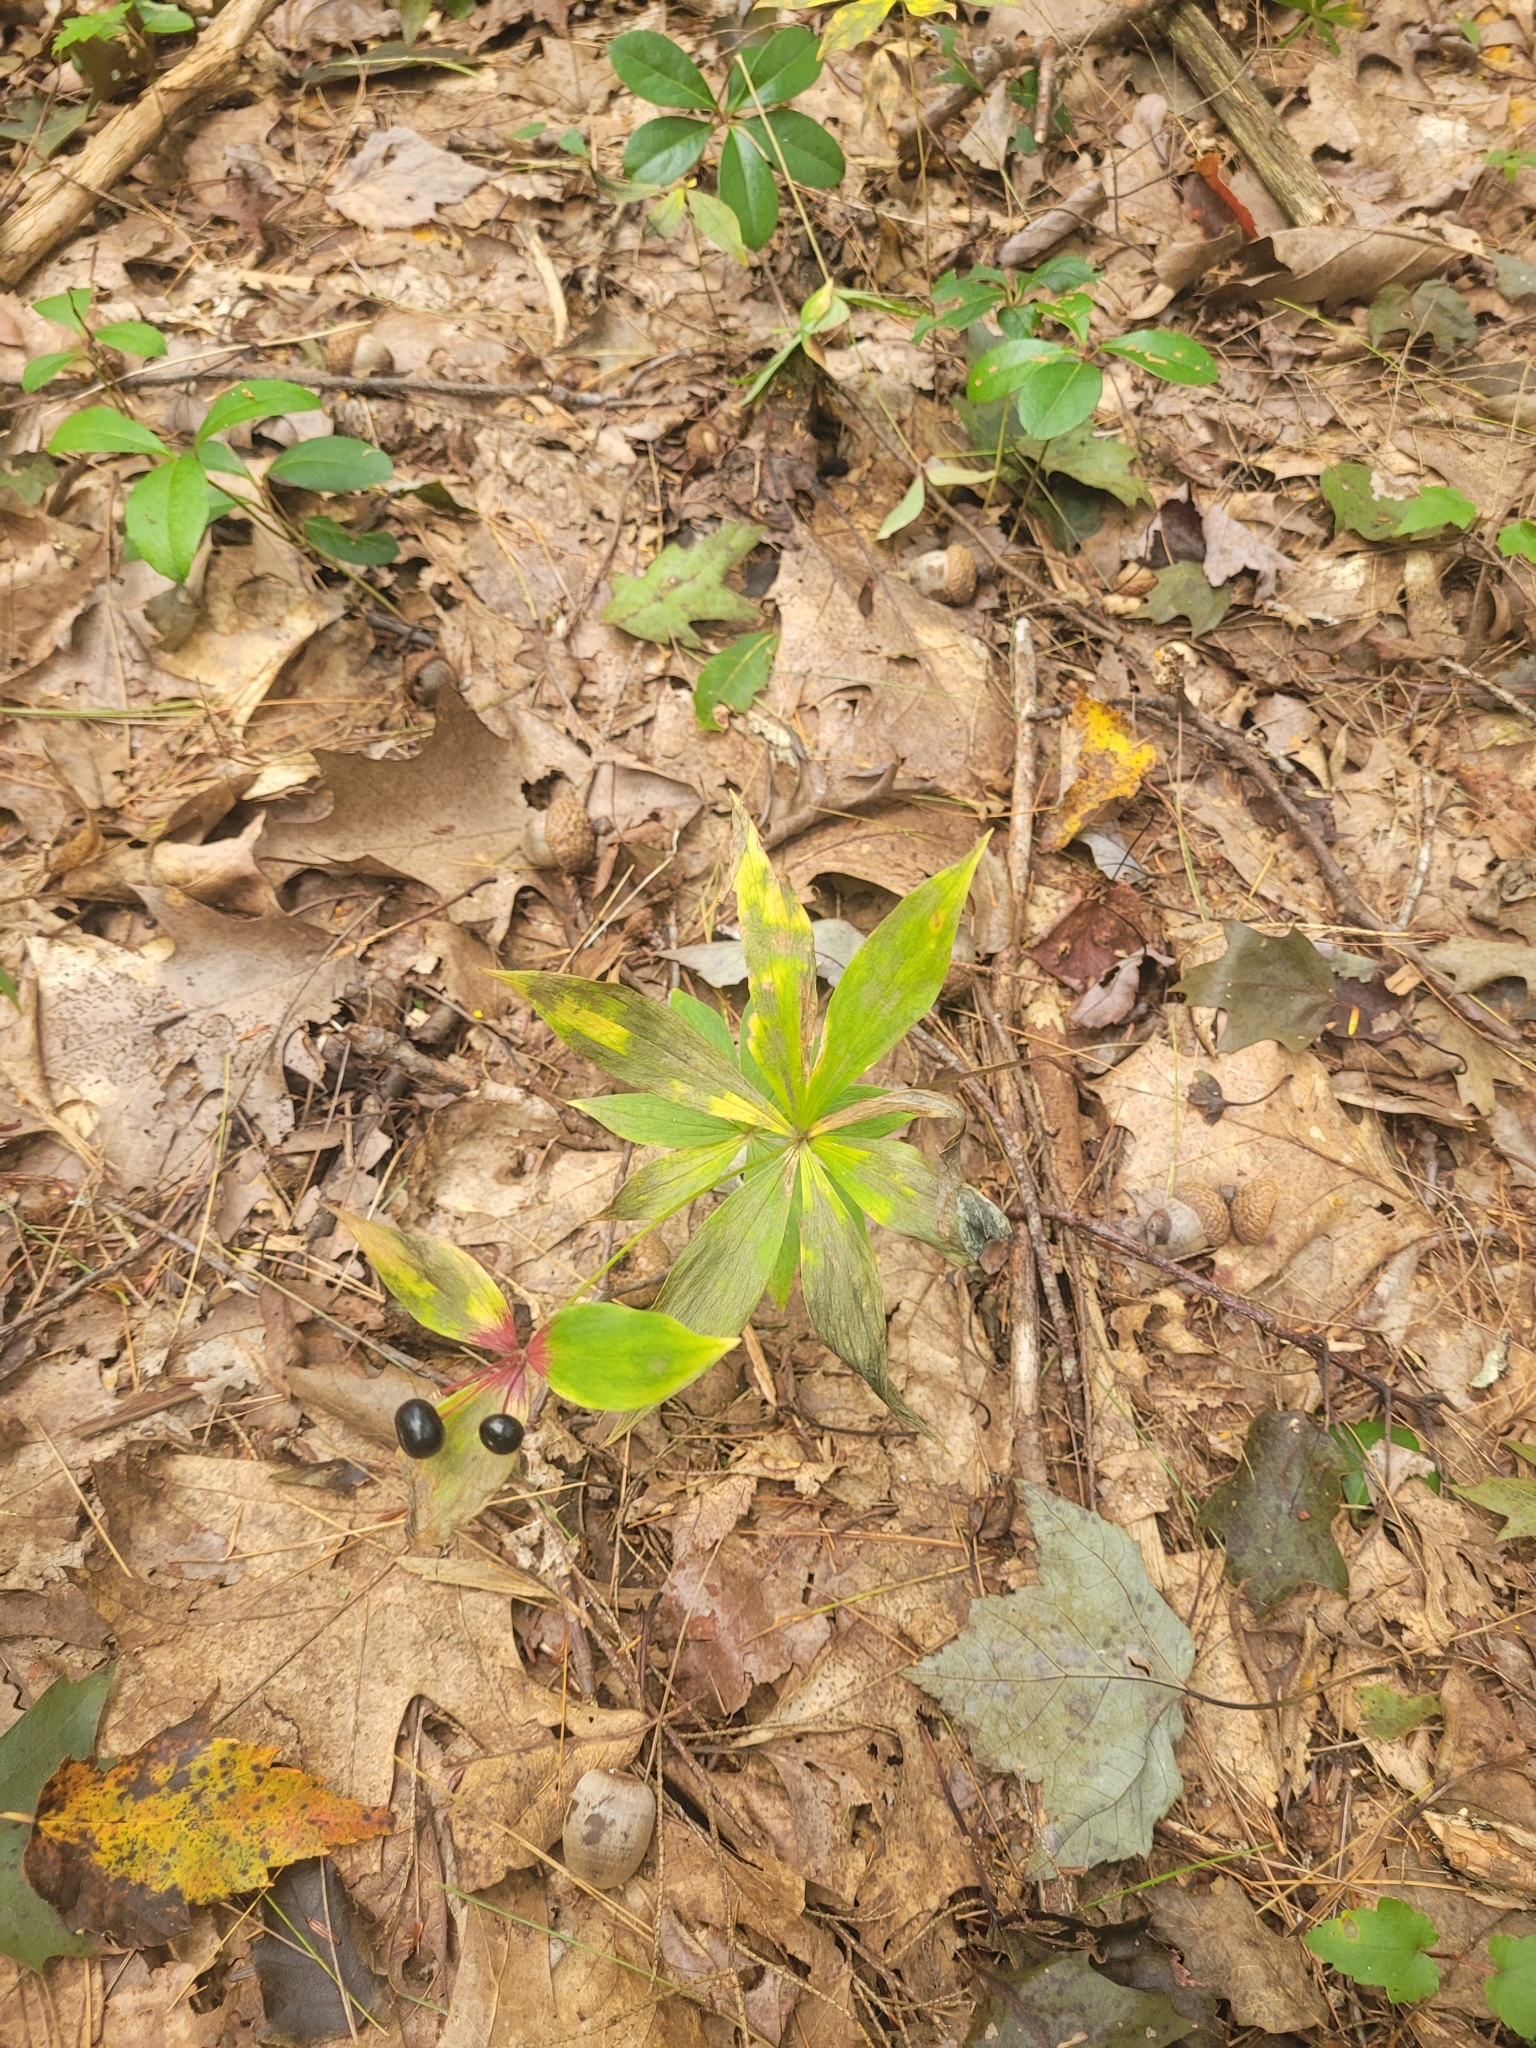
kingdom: Plantae
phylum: Tracheophyta
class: Liliopsida
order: Liliales
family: Liliaceae
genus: Medeola
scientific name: Medeola virginiana
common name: Indian cucumber-root
